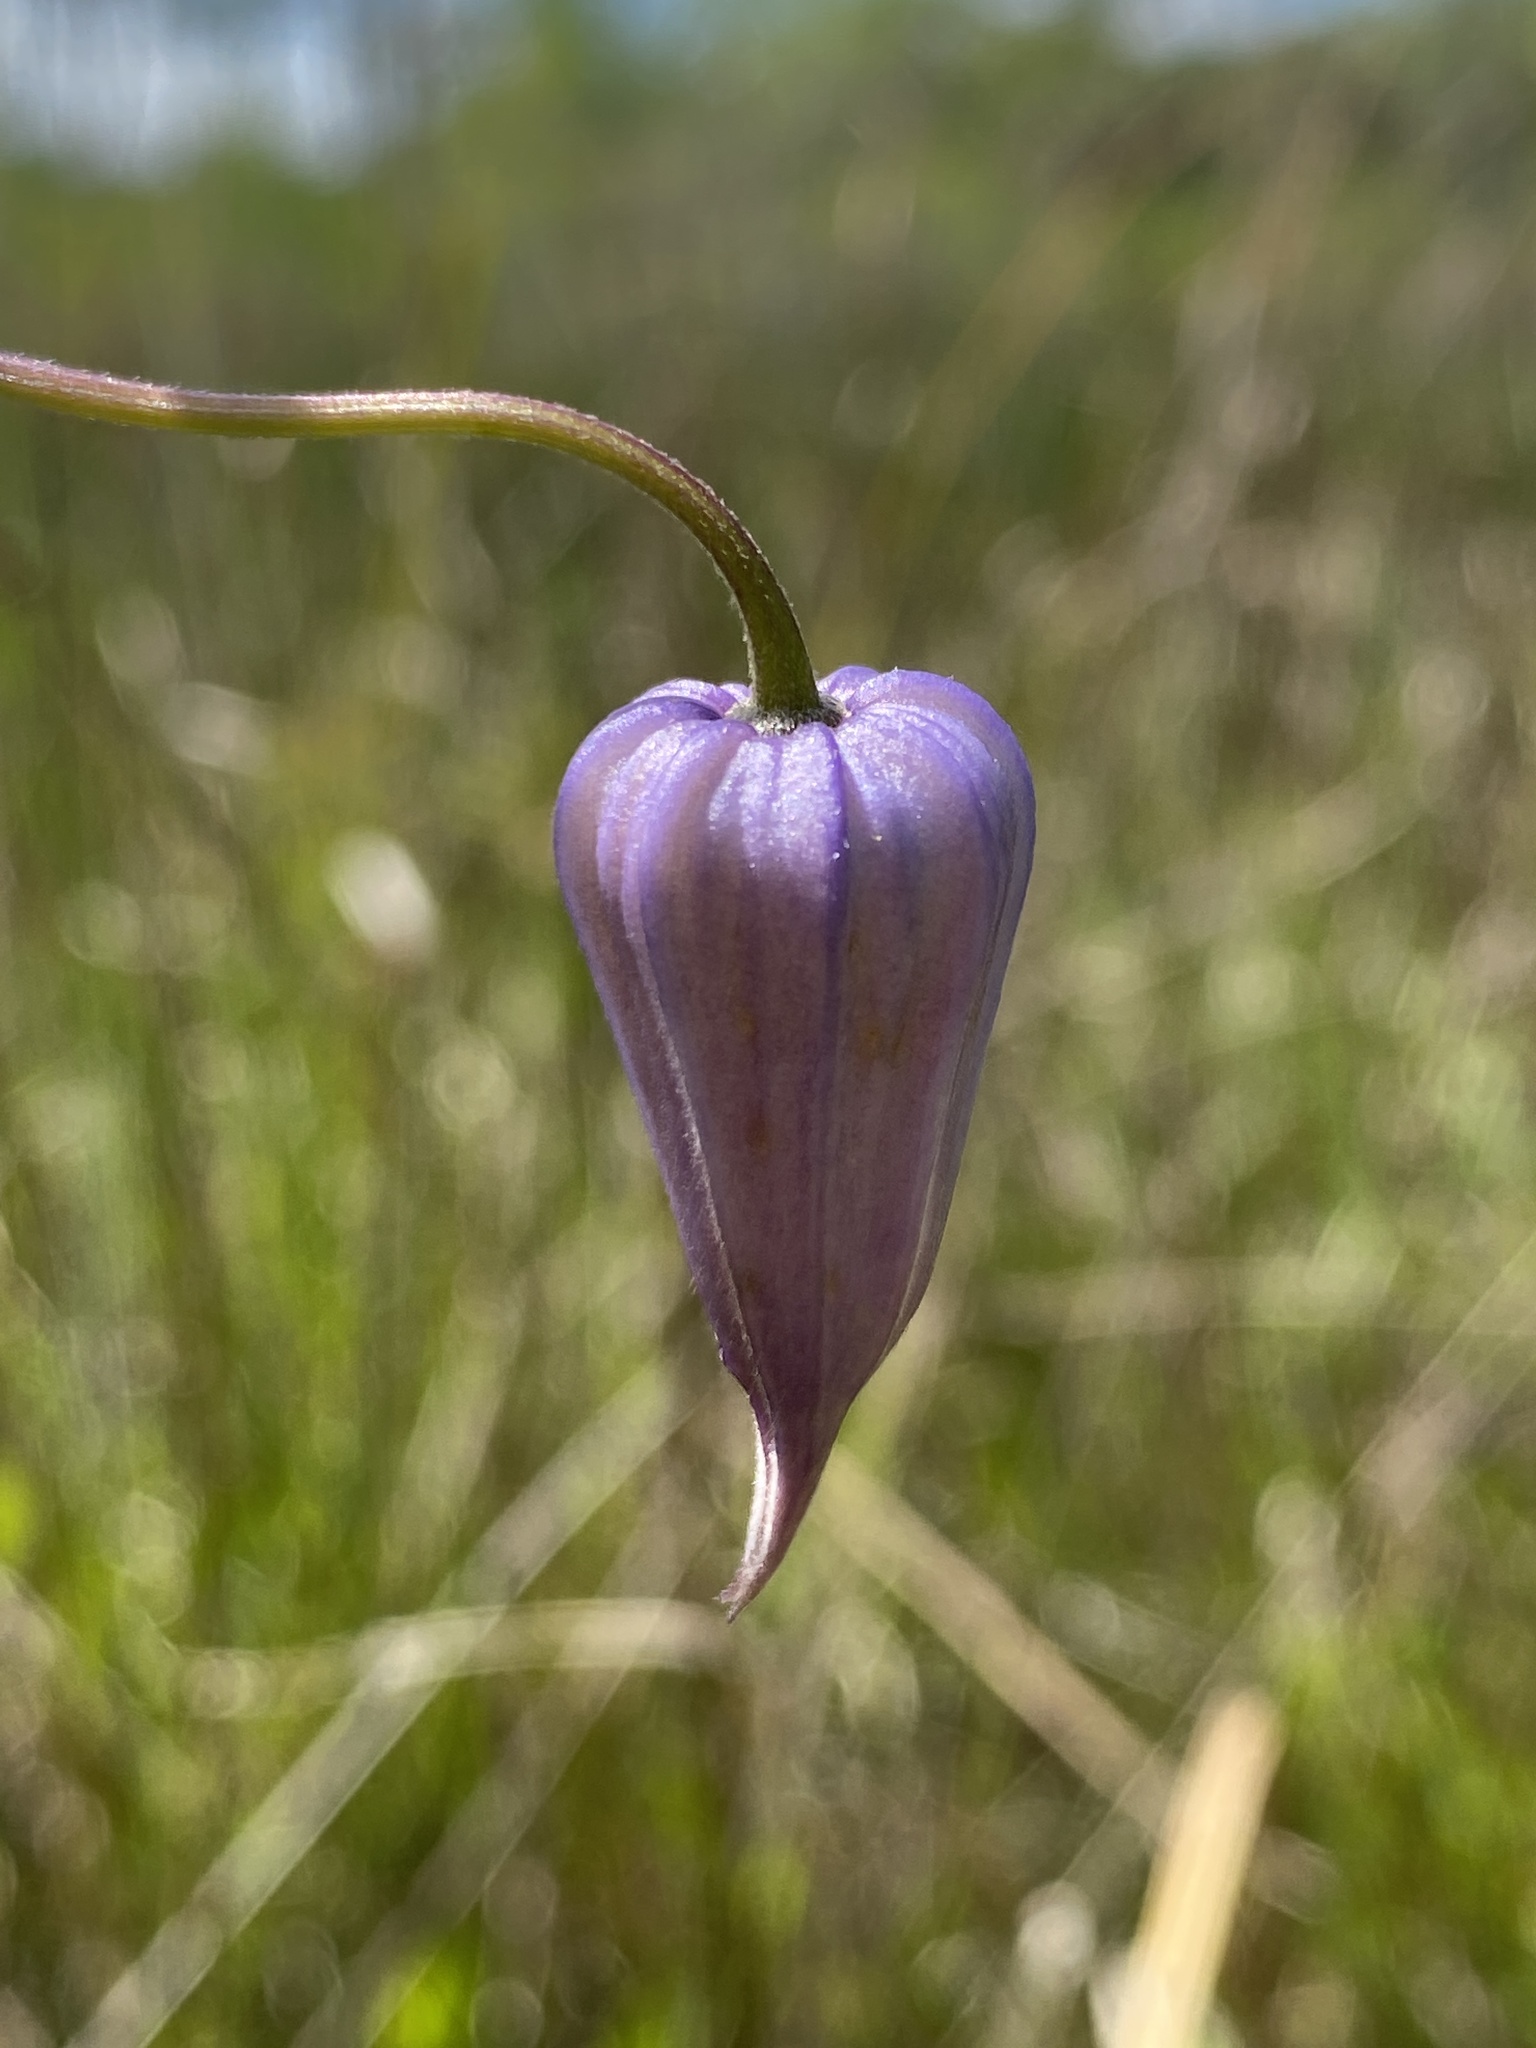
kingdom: Plantae
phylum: Tracheophyta
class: Magnoliopsida
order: Ranunculales
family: Ranunculaceae
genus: Clematis
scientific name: Clematis crispa
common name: Curly clematis
